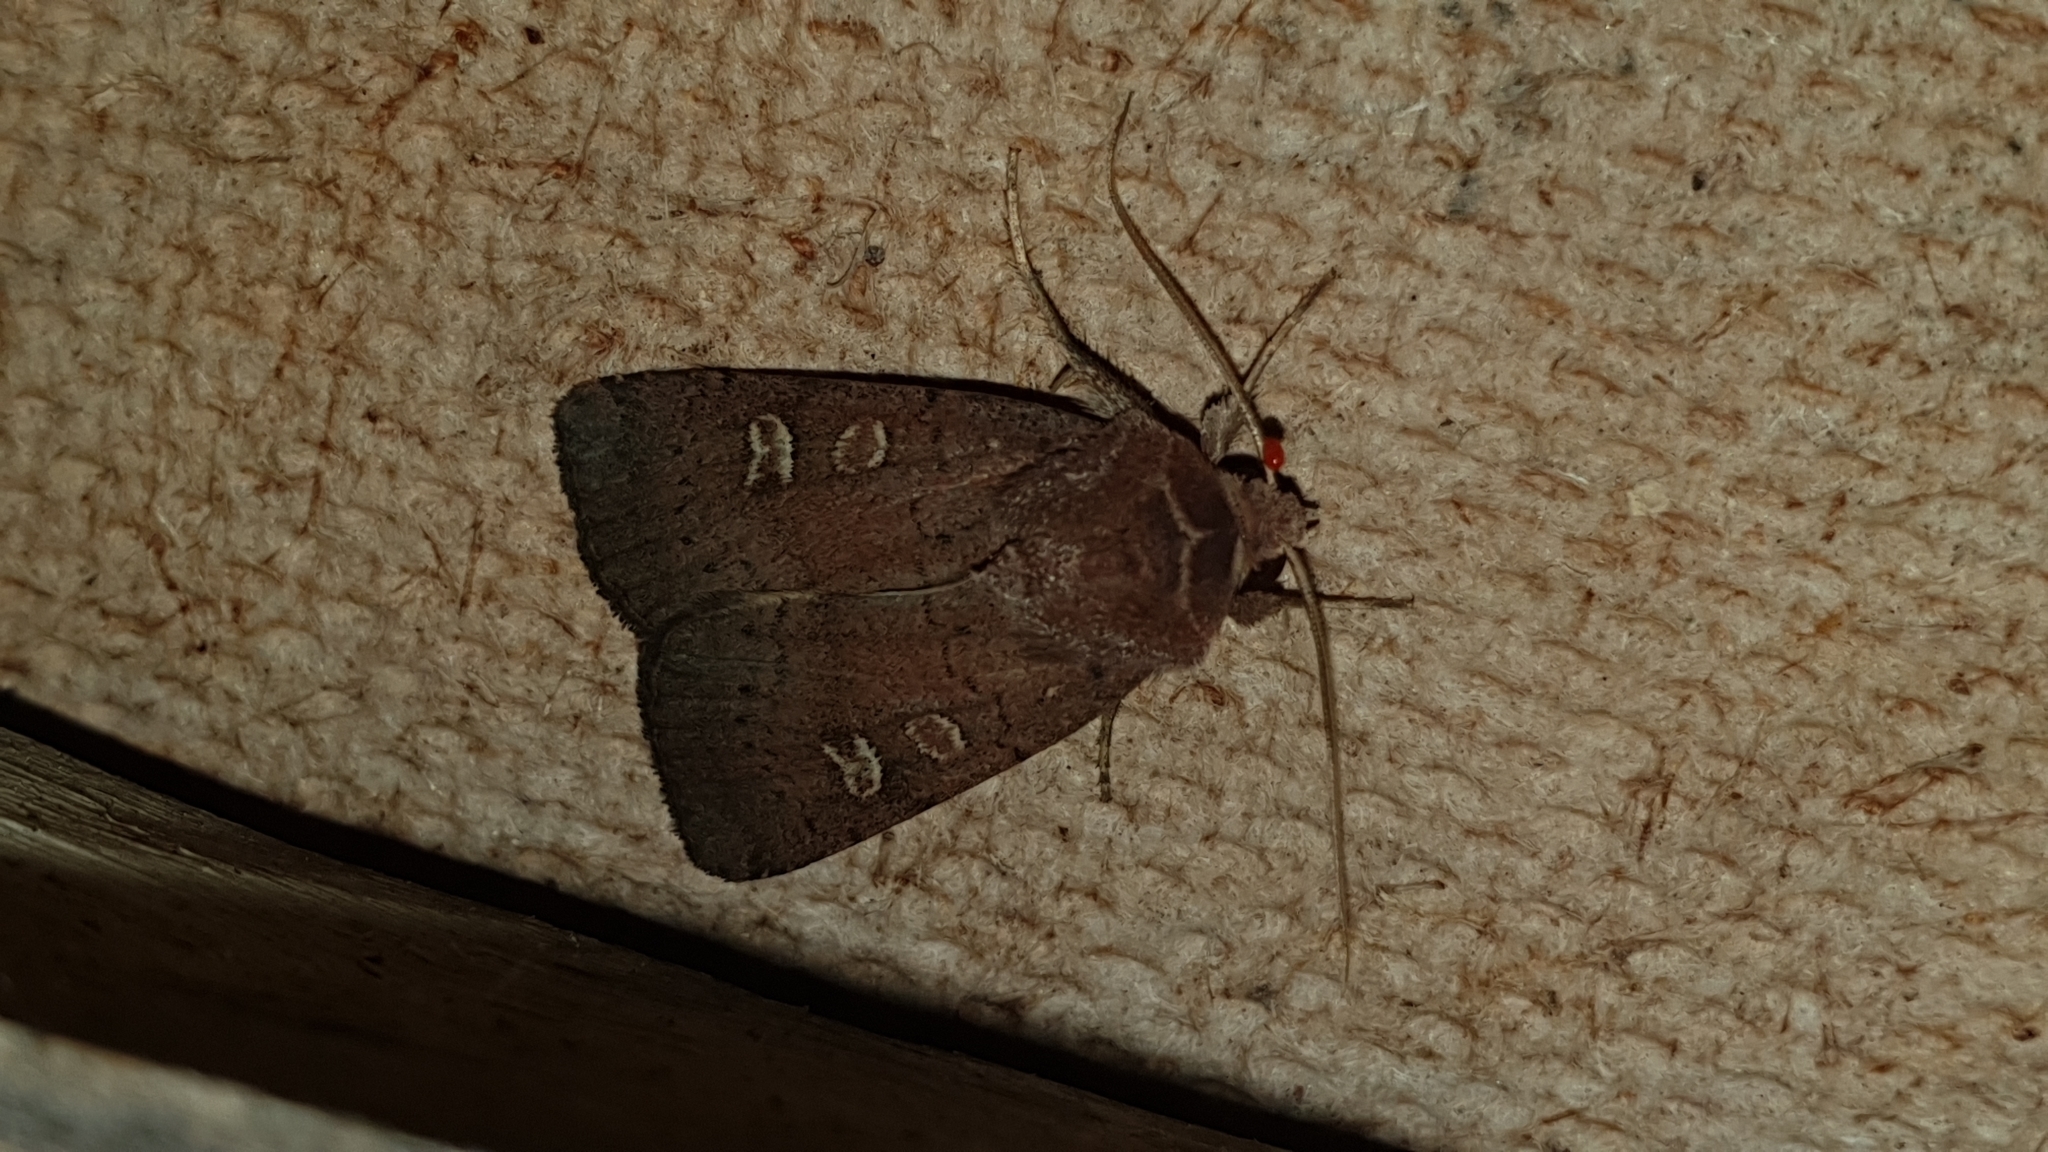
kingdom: Animalia
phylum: Arthropoda
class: Insecta
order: Lepidoptera
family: Noctuidae
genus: Xestia
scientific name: Xestia xanthographa
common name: Square-spot rustic
